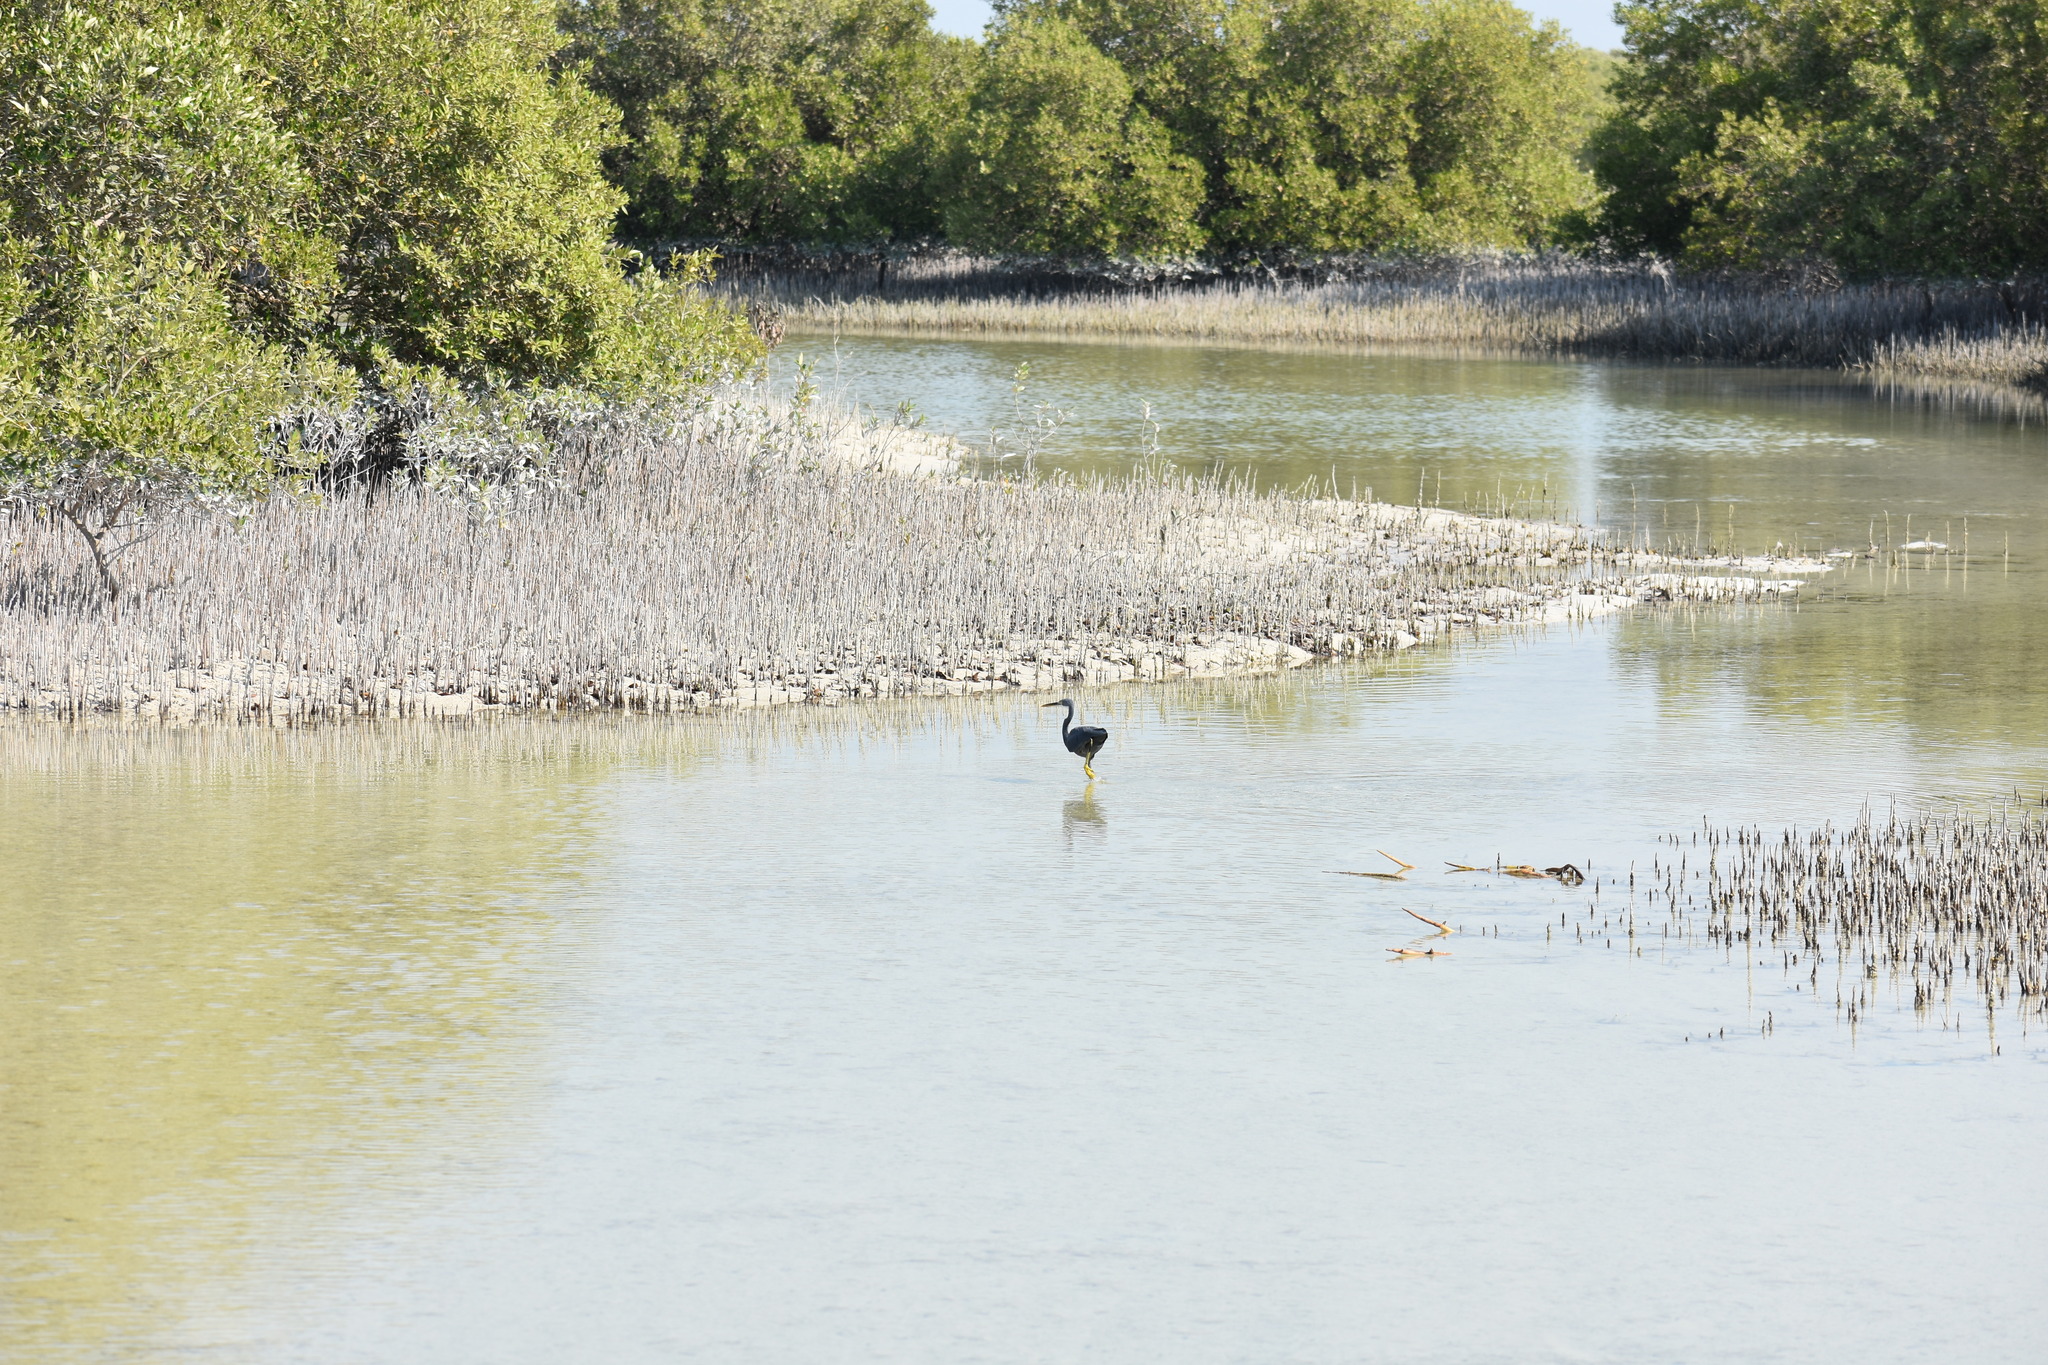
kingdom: Animalia
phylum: Chordata
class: Aves
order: Pelecaniformes
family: Ardeidae
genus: Egretta
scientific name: Egretta gularis
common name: Western reef-heron
